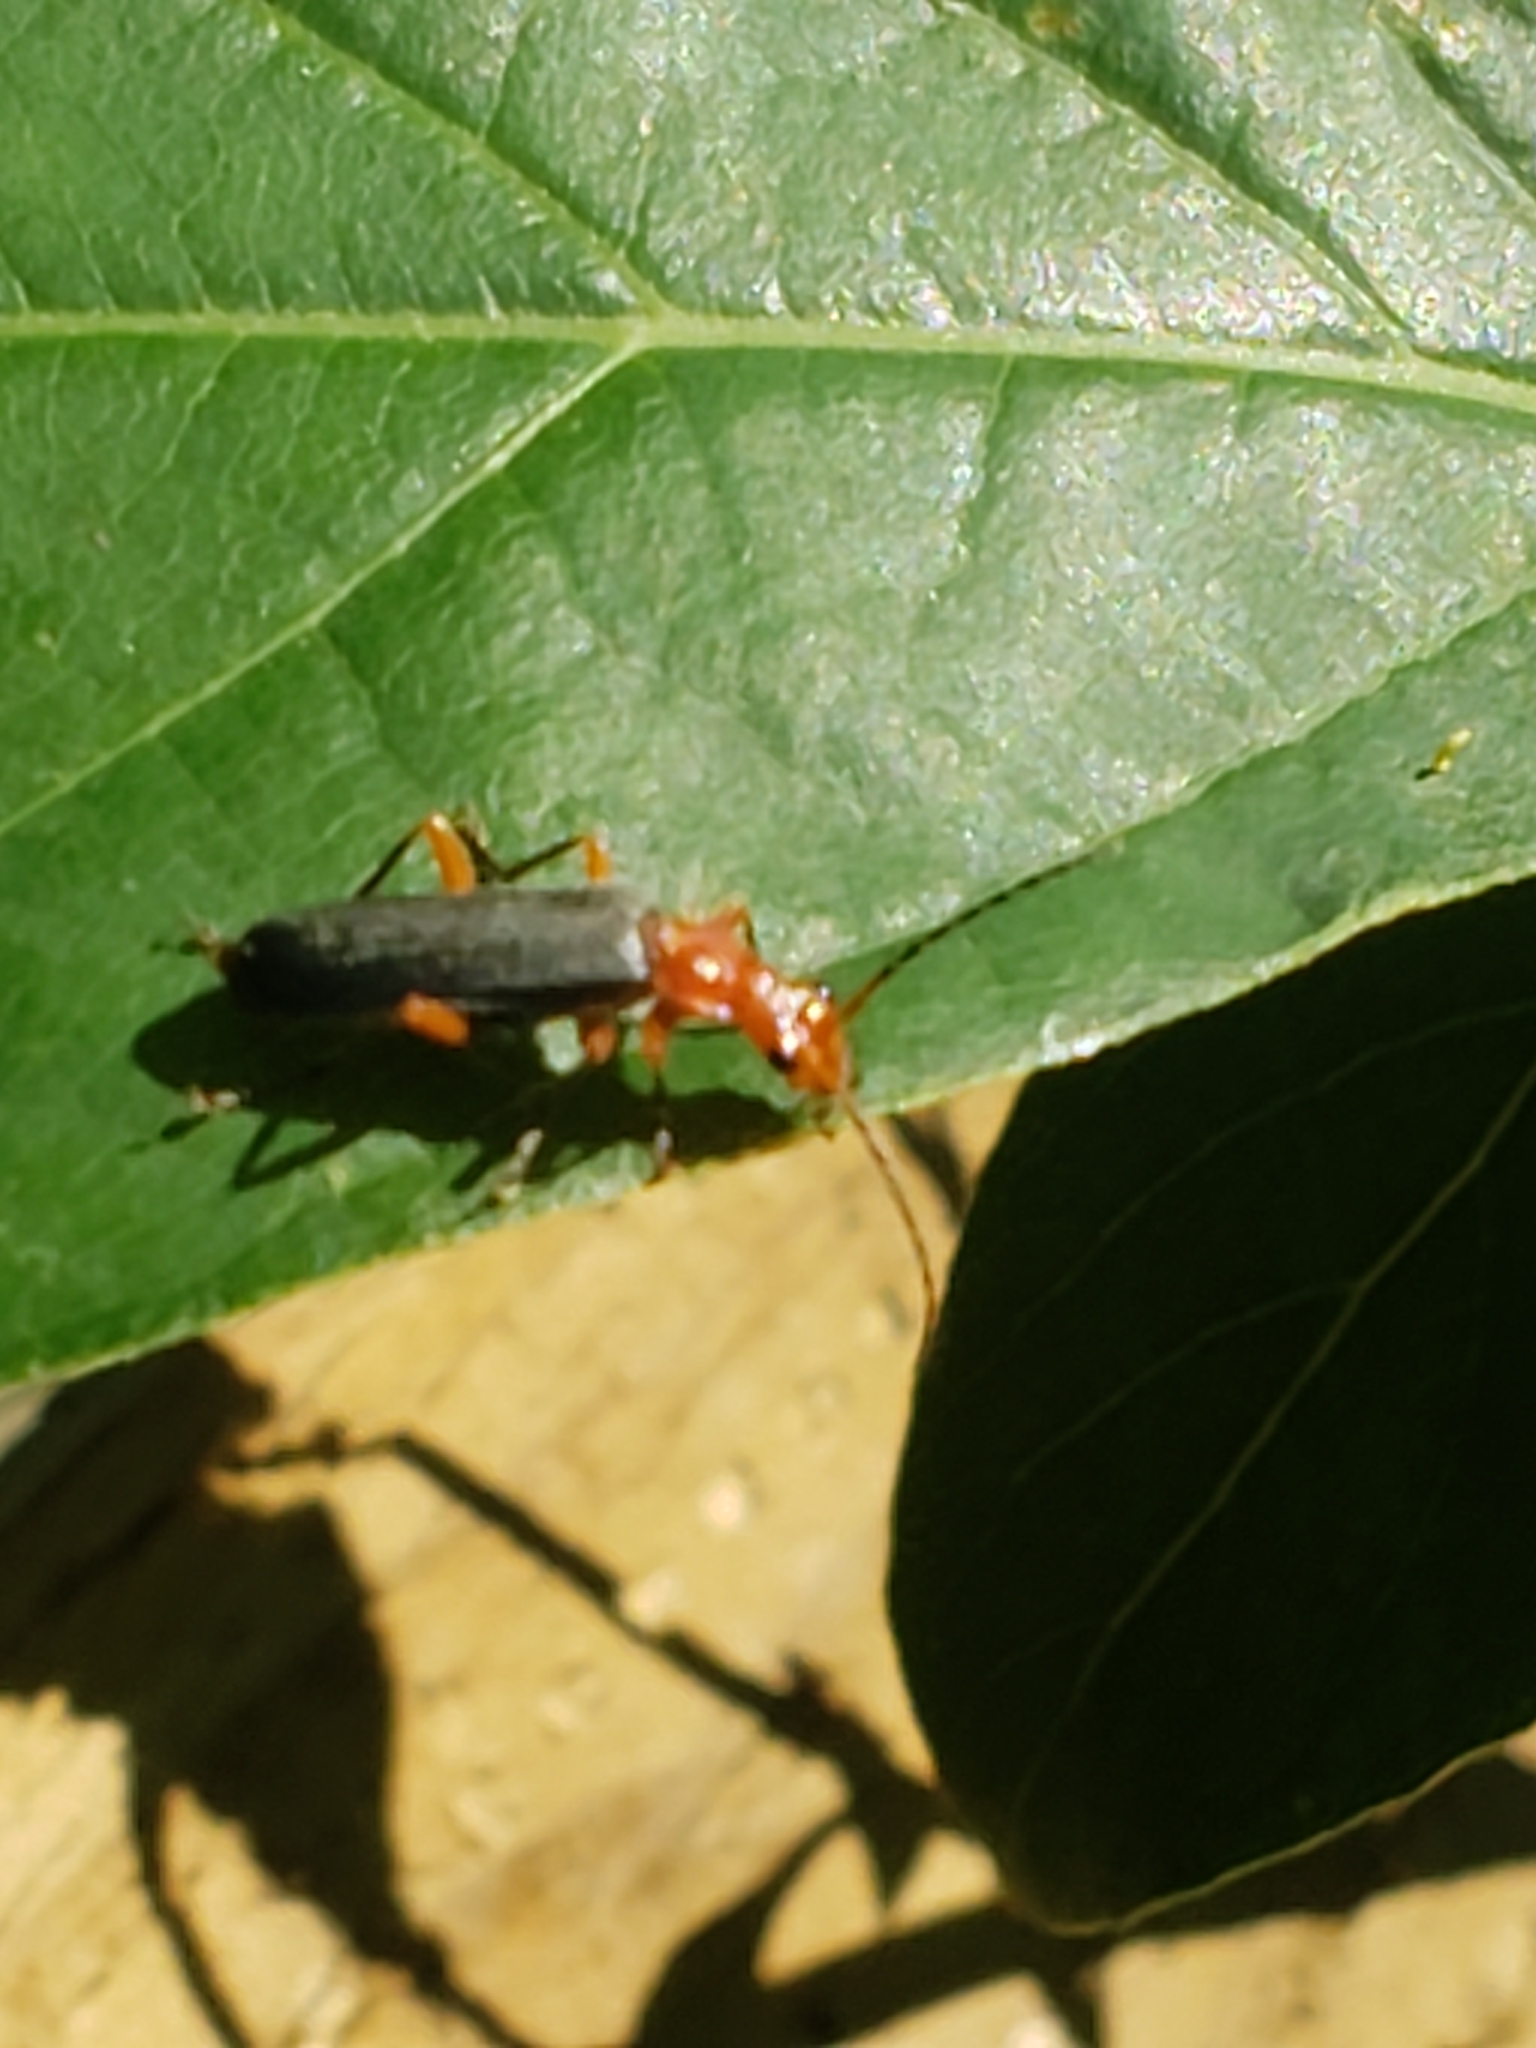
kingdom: Animalia
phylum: Arthropoda
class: Insecta
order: Coleoptera
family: Cantharidae
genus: Podabrus
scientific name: Podabrus tomentosus
